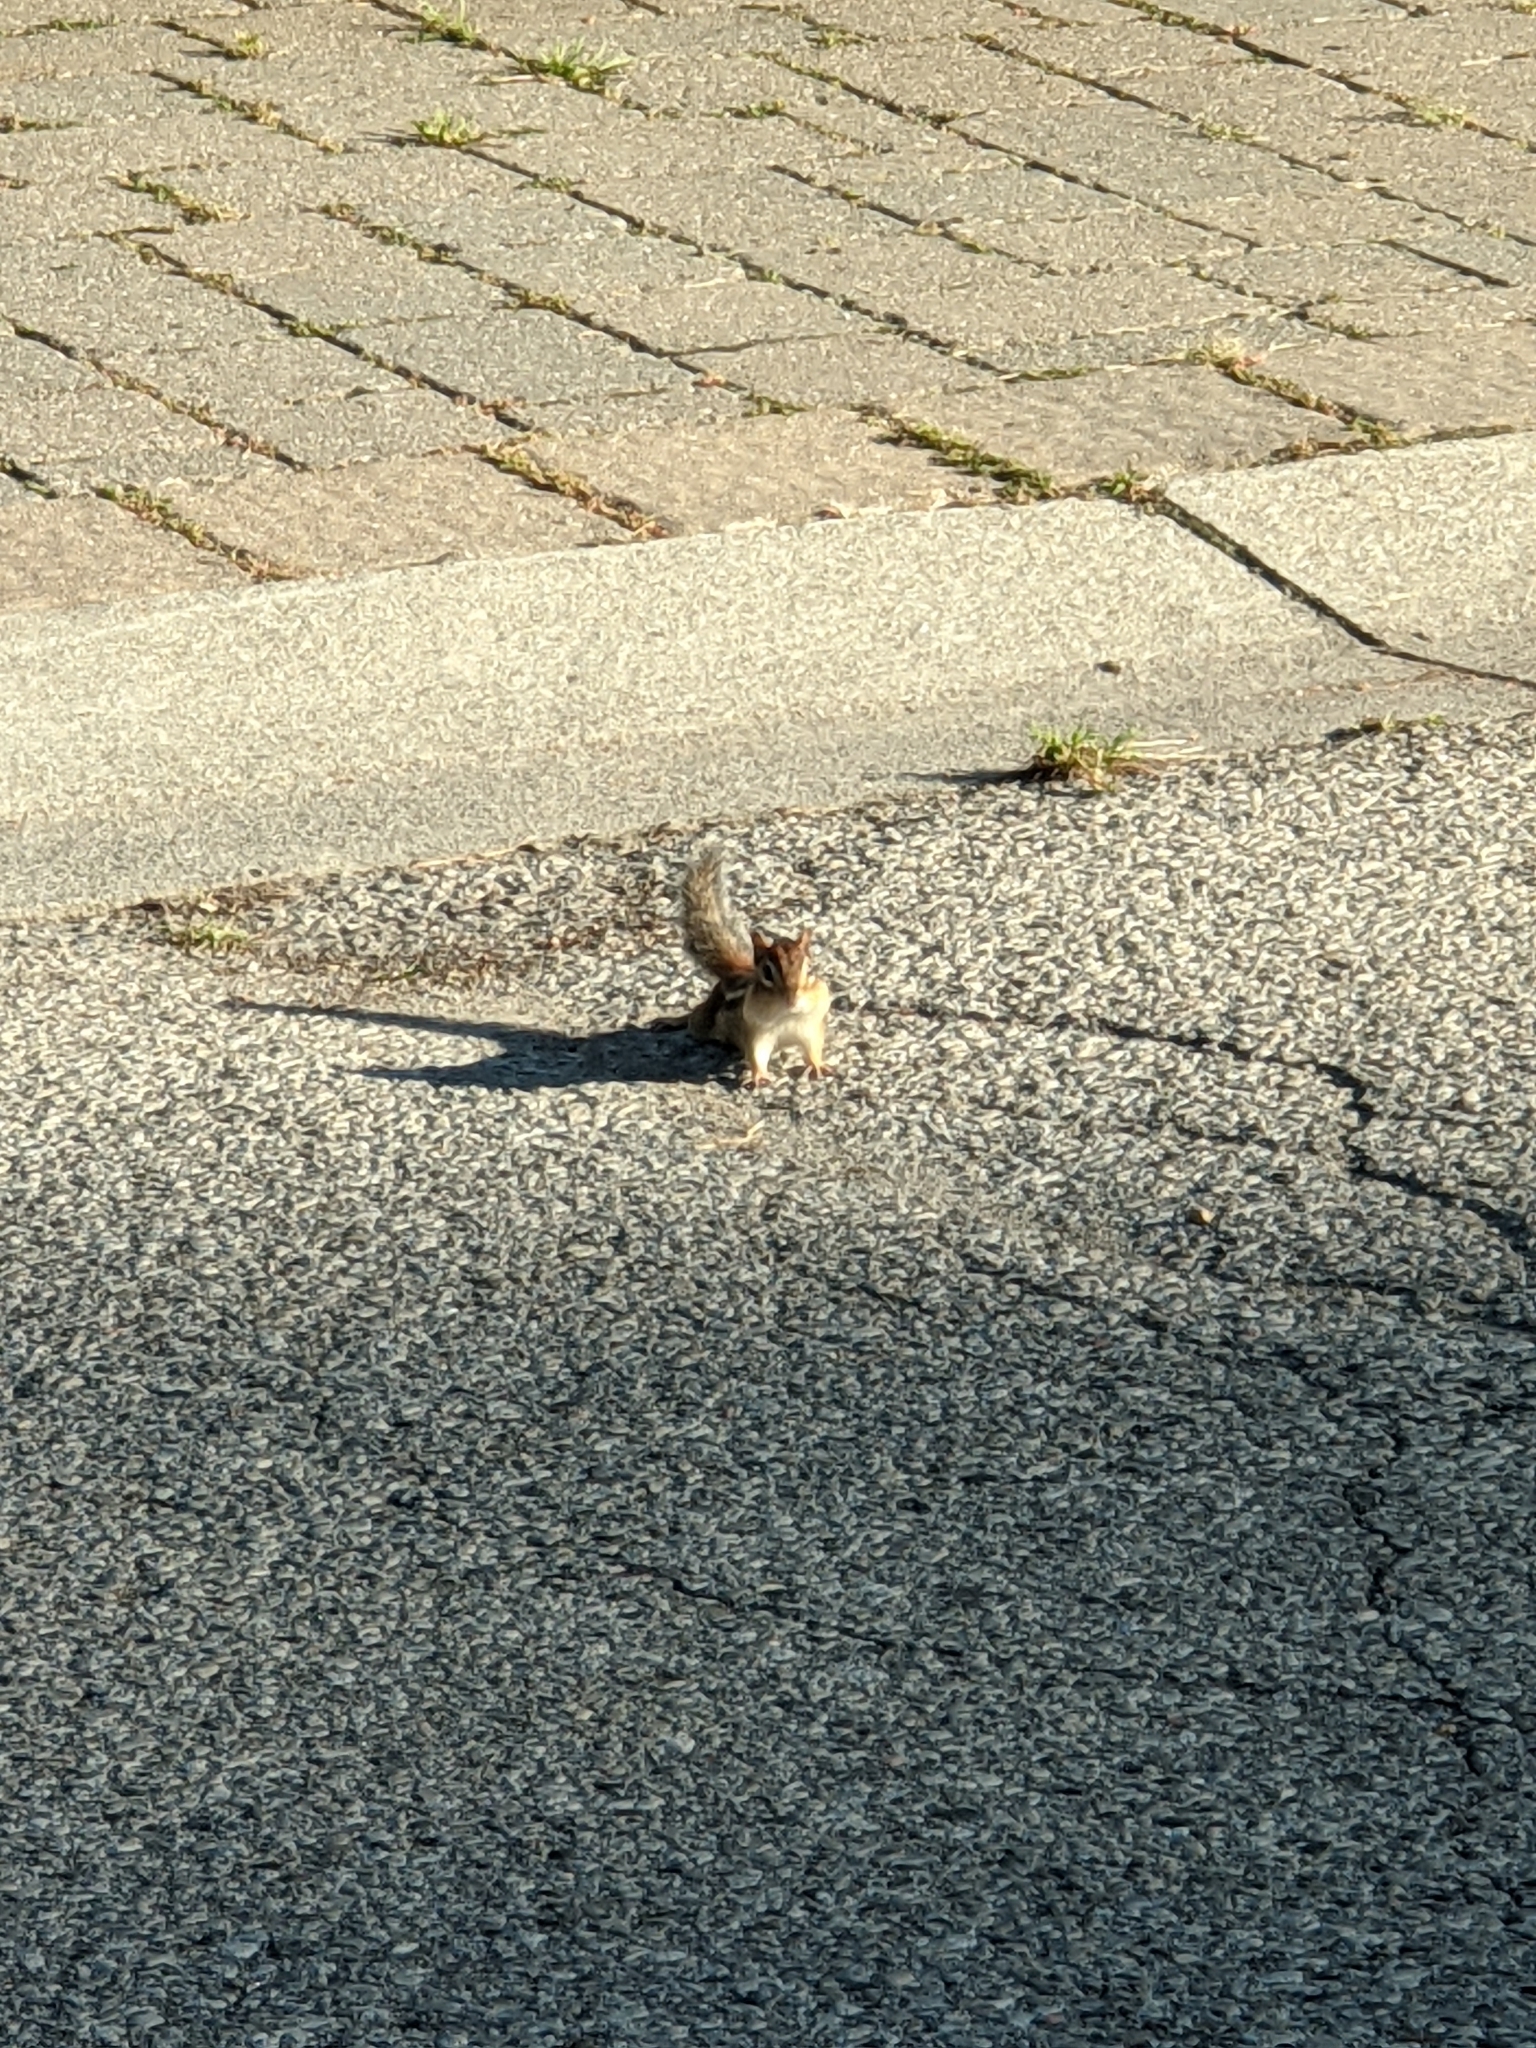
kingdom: Animalia
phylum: Chordata
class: Mammalia
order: Rodentia
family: Sciuridae
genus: Tamias
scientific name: Tamias striatus
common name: Eastern chipmunk
